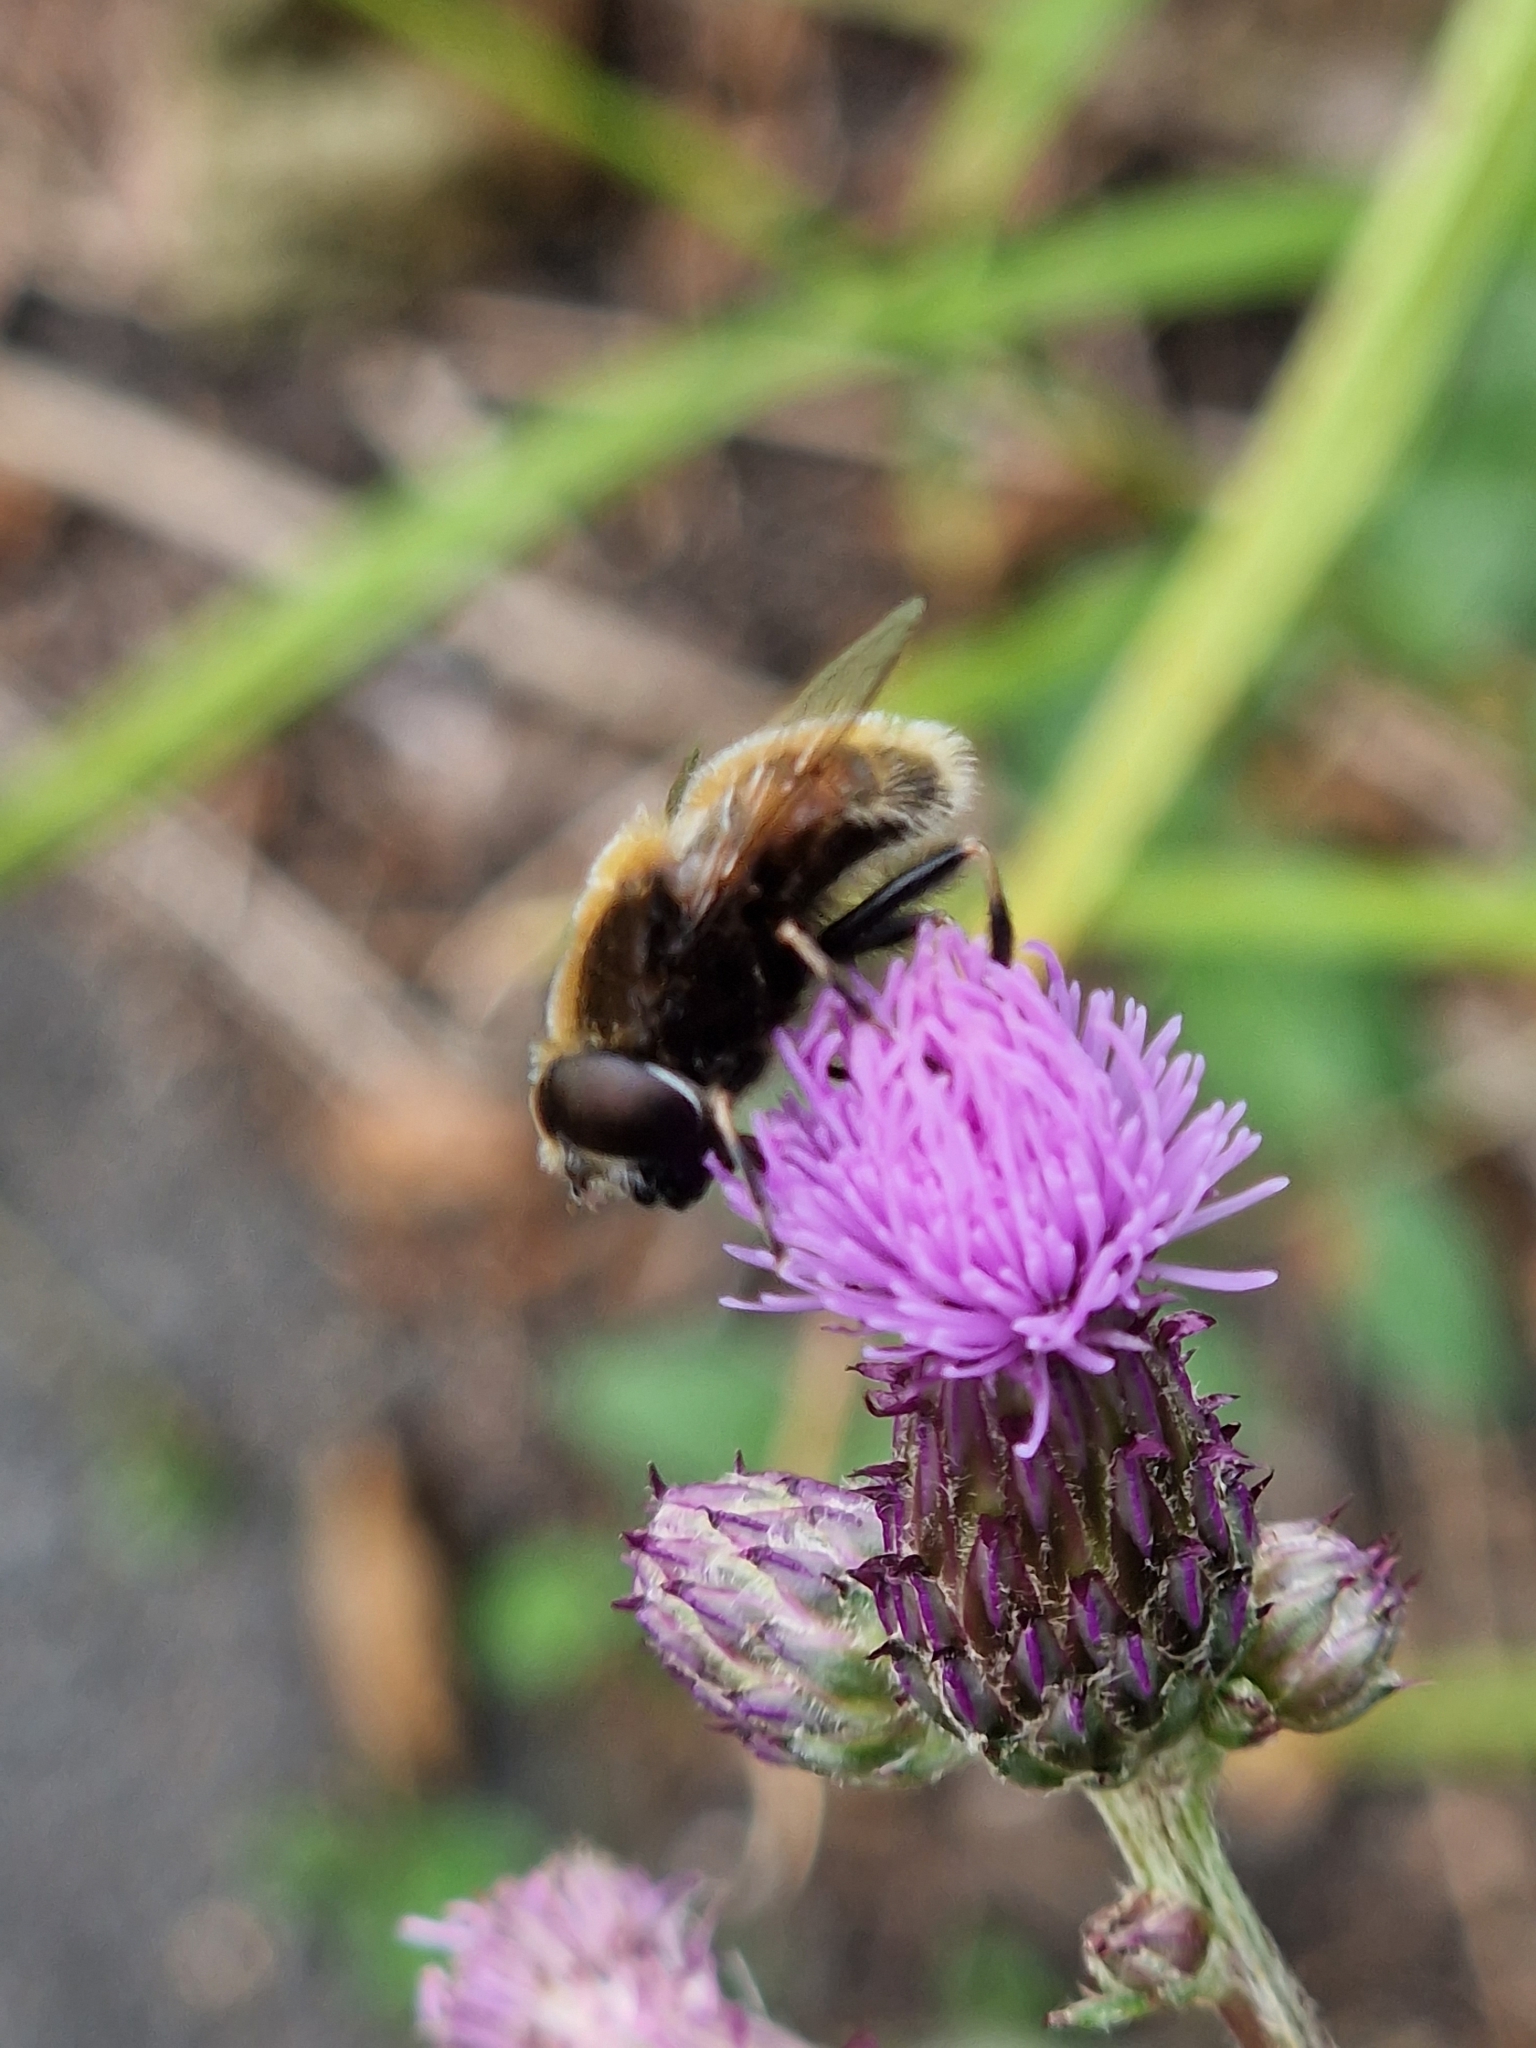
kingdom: Animalia
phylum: Arthropoda
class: Insecta
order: Diptera
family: Syrphidae
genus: Eristalis
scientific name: Eristalis intricaria
